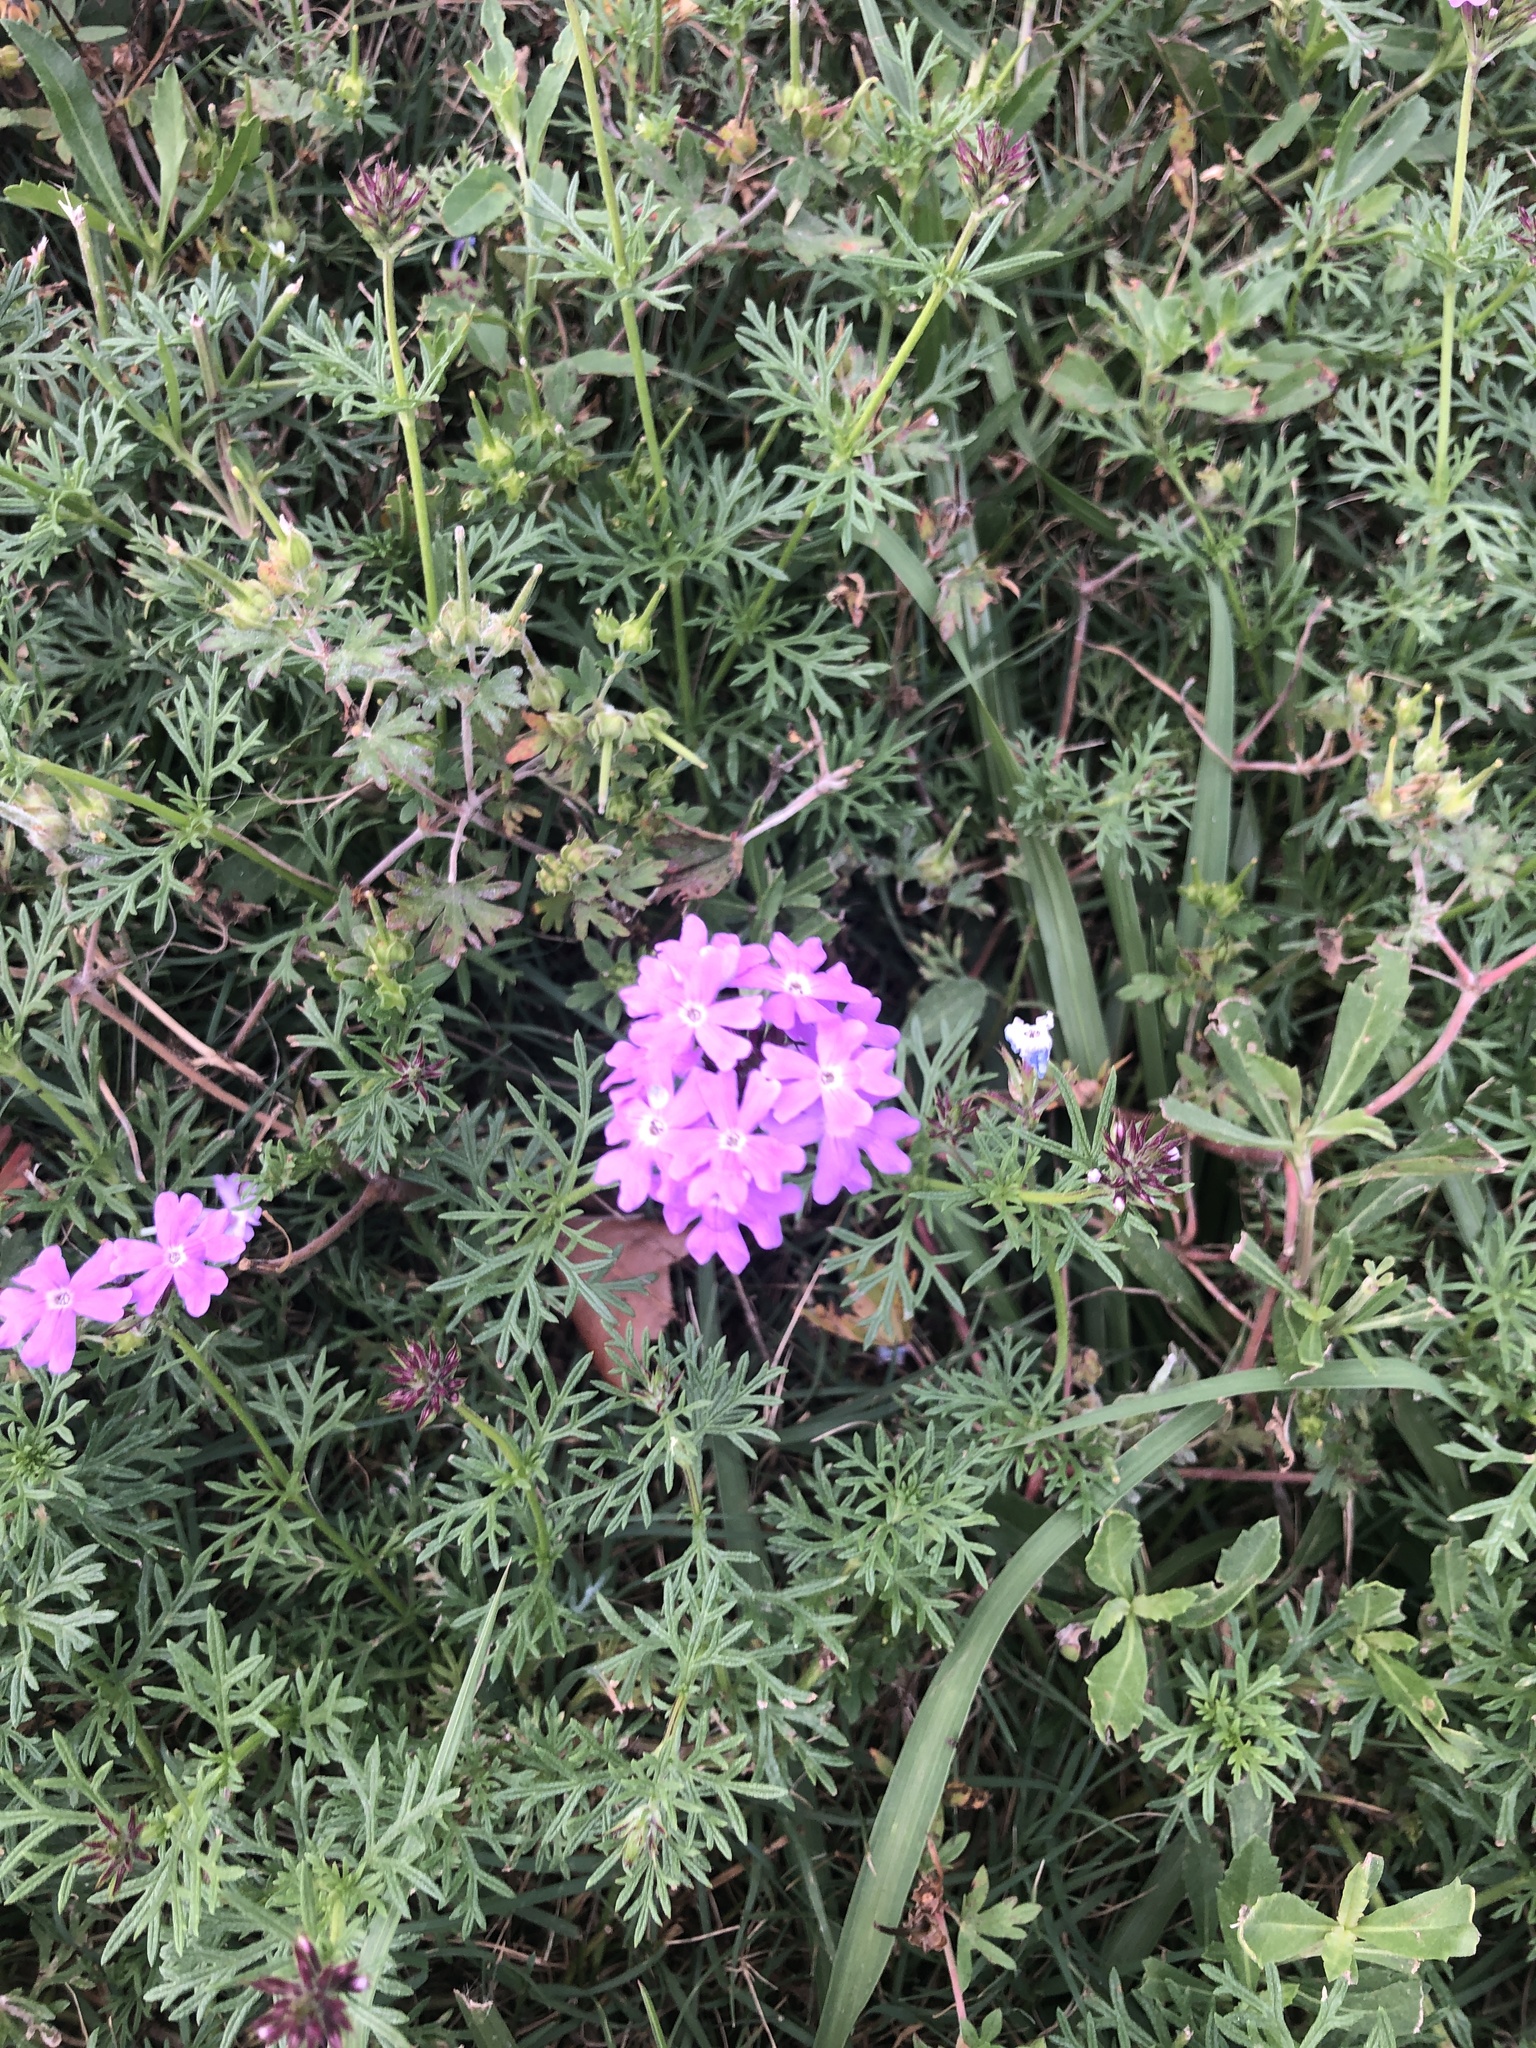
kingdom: Plantae
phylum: Tracheophyta
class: Magnoliopsida
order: Lamiales
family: Verbenaceae
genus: Verbena
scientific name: Verbena bipinnatifida
